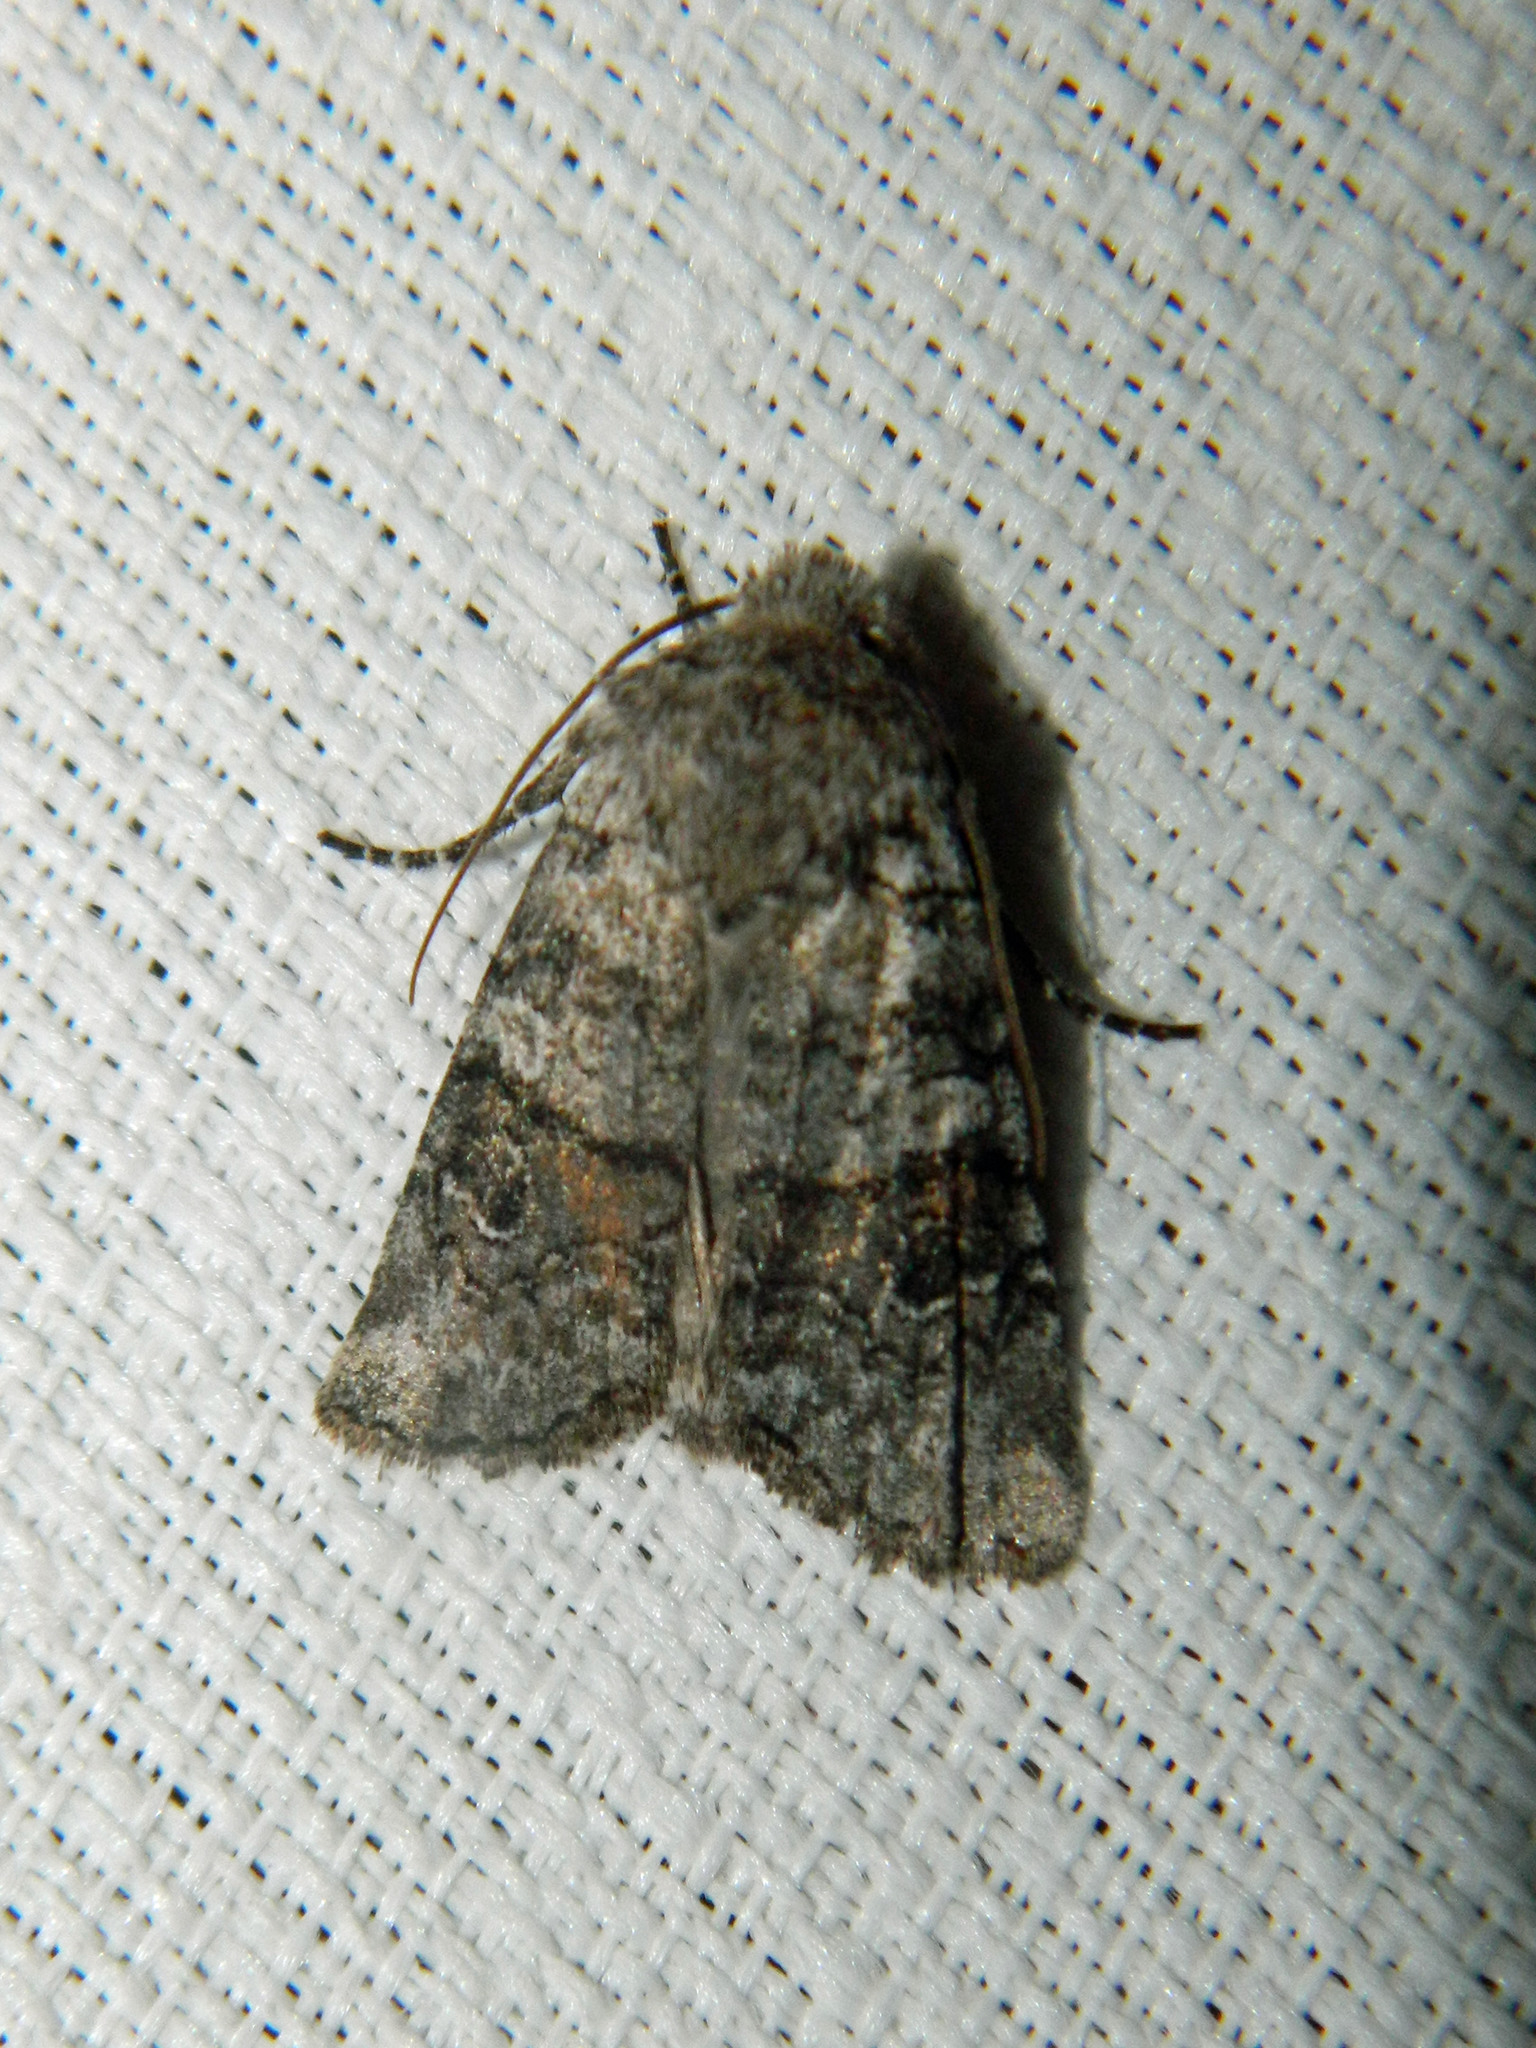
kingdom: Animalia
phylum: Arthropoda
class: Insecta
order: Lepidoptera
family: Noctuidae
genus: Litholomia
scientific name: Litholomia napaea
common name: False pinion moth
